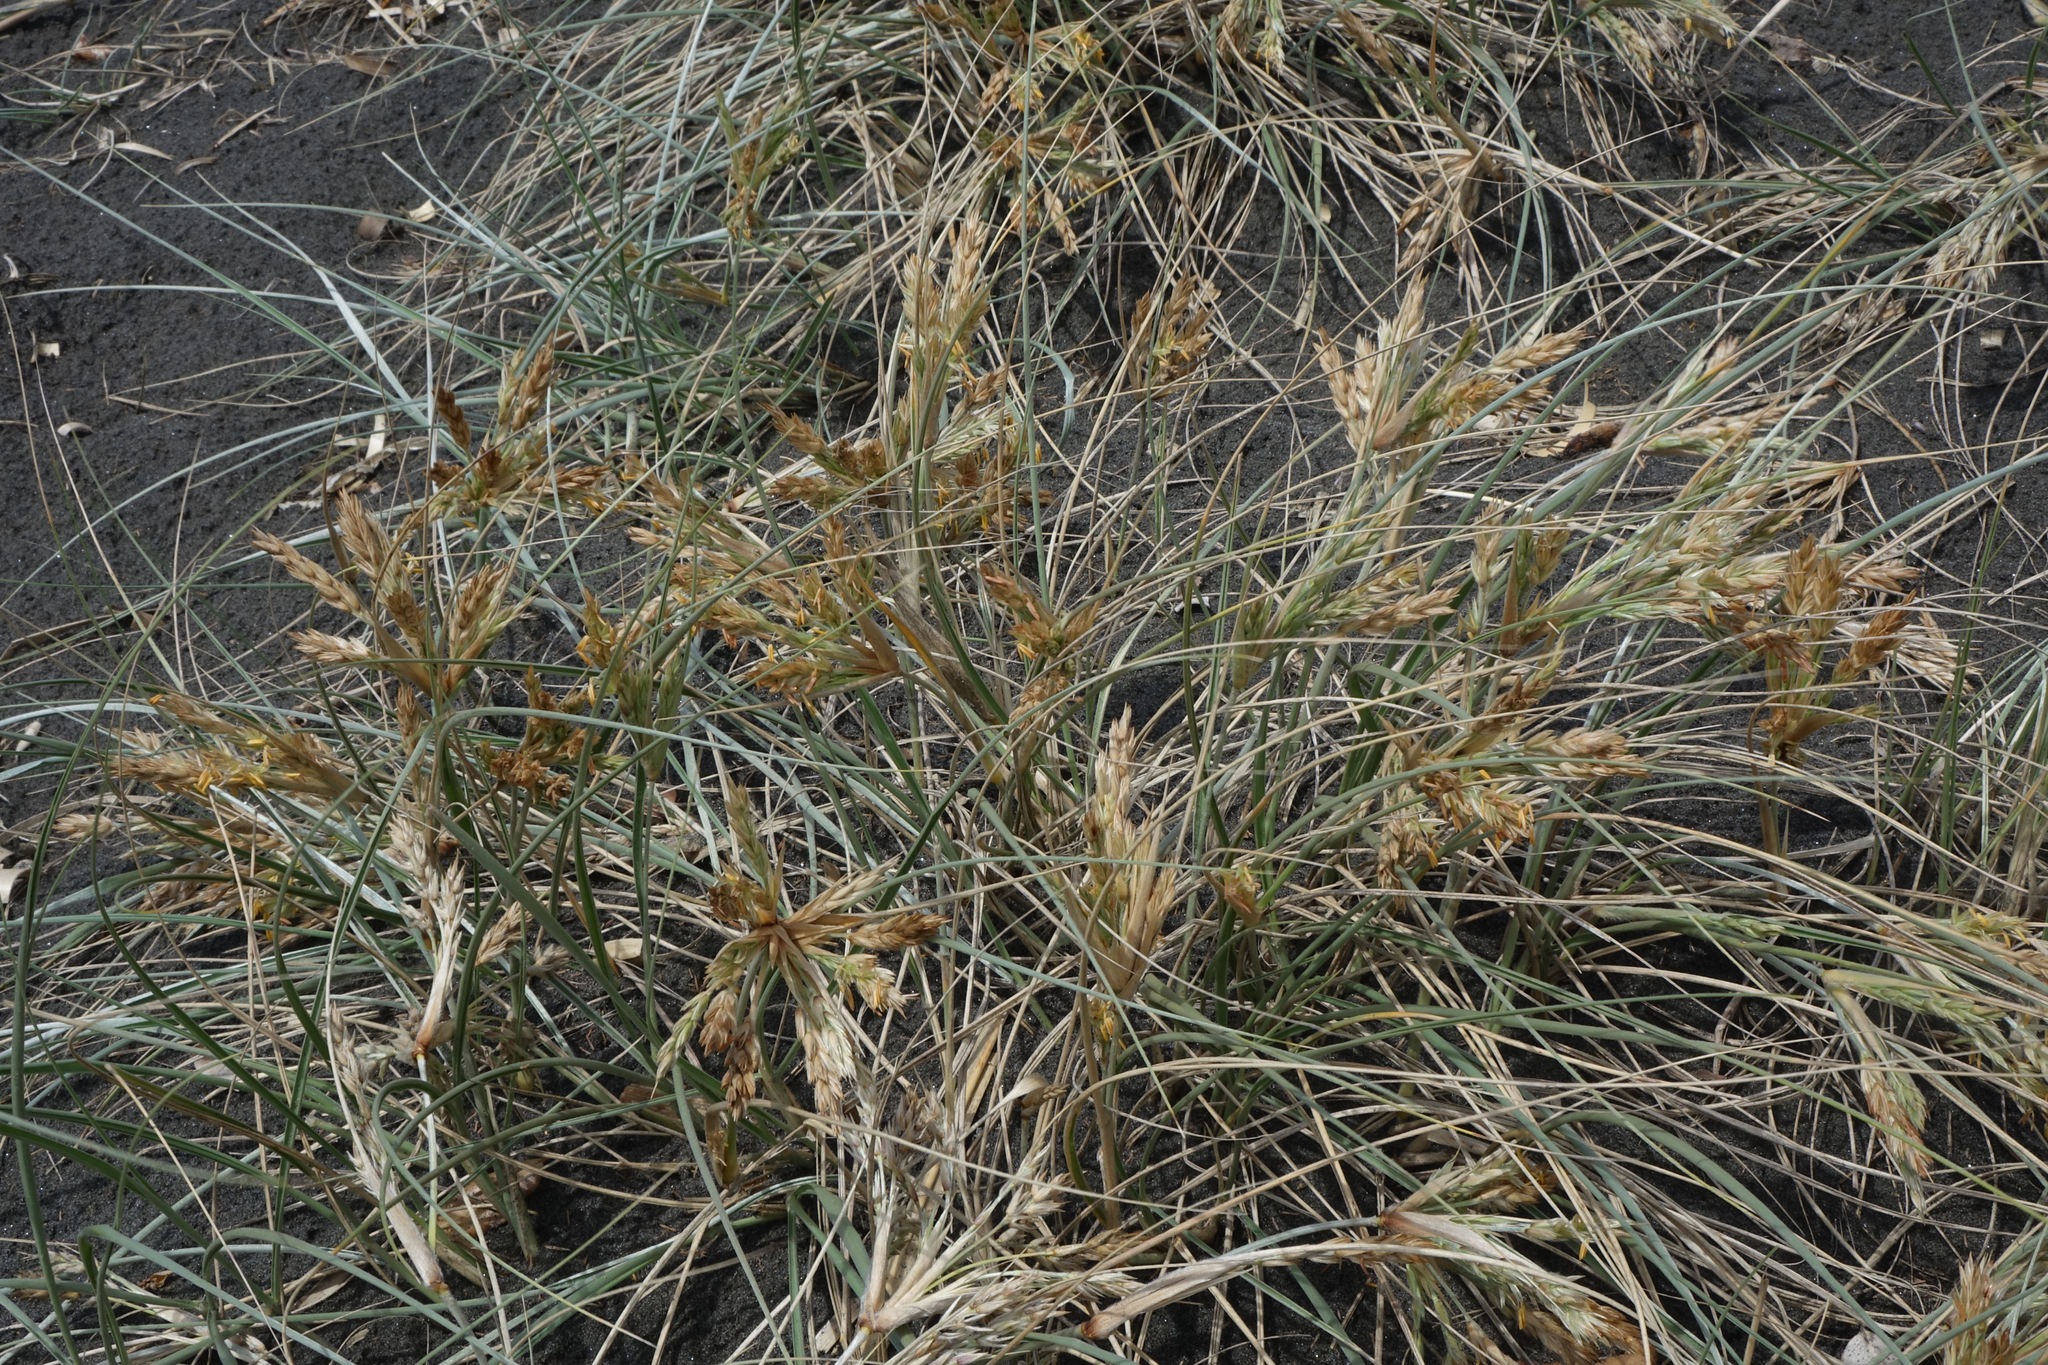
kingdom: Plantae
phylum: Tracheophyta
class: Liliopsida
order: Poales
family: Poaceae
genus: Spinifex
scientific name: Spinifex sericeus
